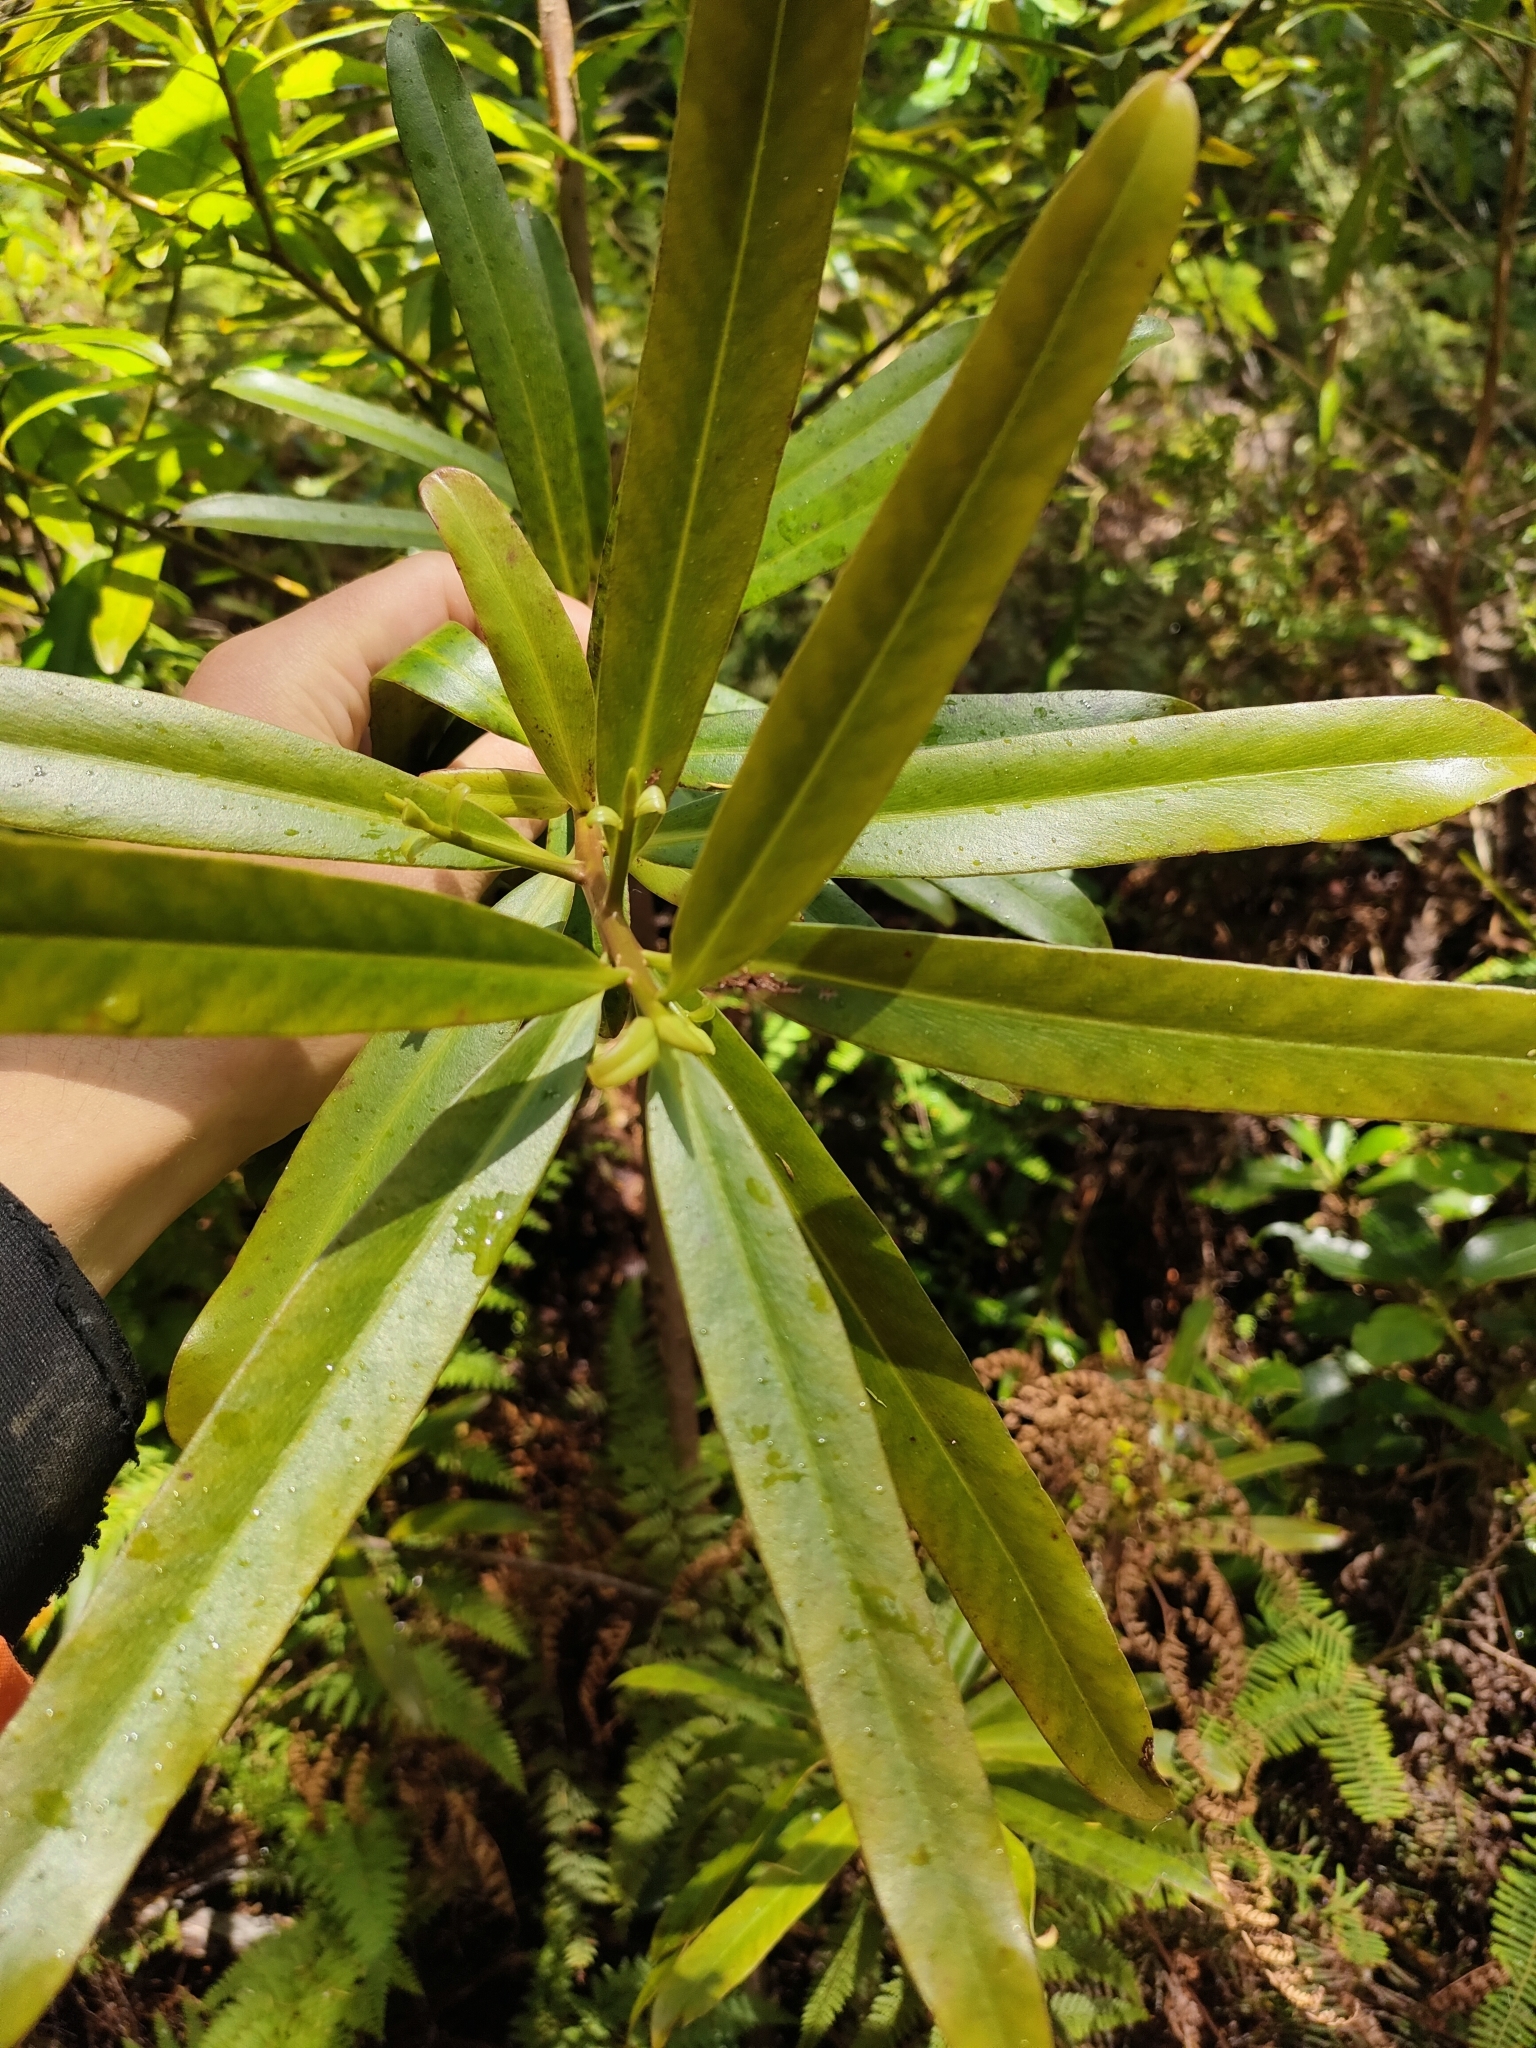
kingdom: Plantae
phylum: Tracheophyta
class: Magnoliopsida
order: Ericales
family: Primulaceae
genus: Myrsine
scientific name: Myrsine salicina
